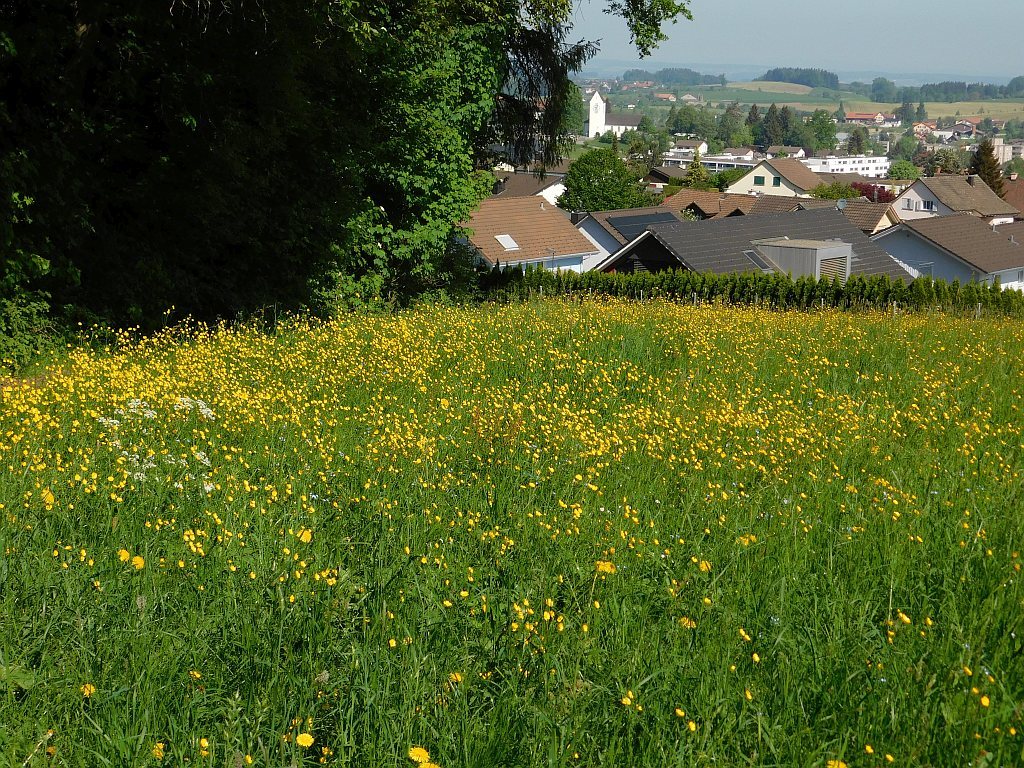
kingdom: Plantae
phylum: Tracheophyta
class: Magnoliopsida
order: Ranunculales
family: Ranunculaceae
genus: Ranunculus
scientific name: Ranunculus acris
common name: Meadow buttercup
